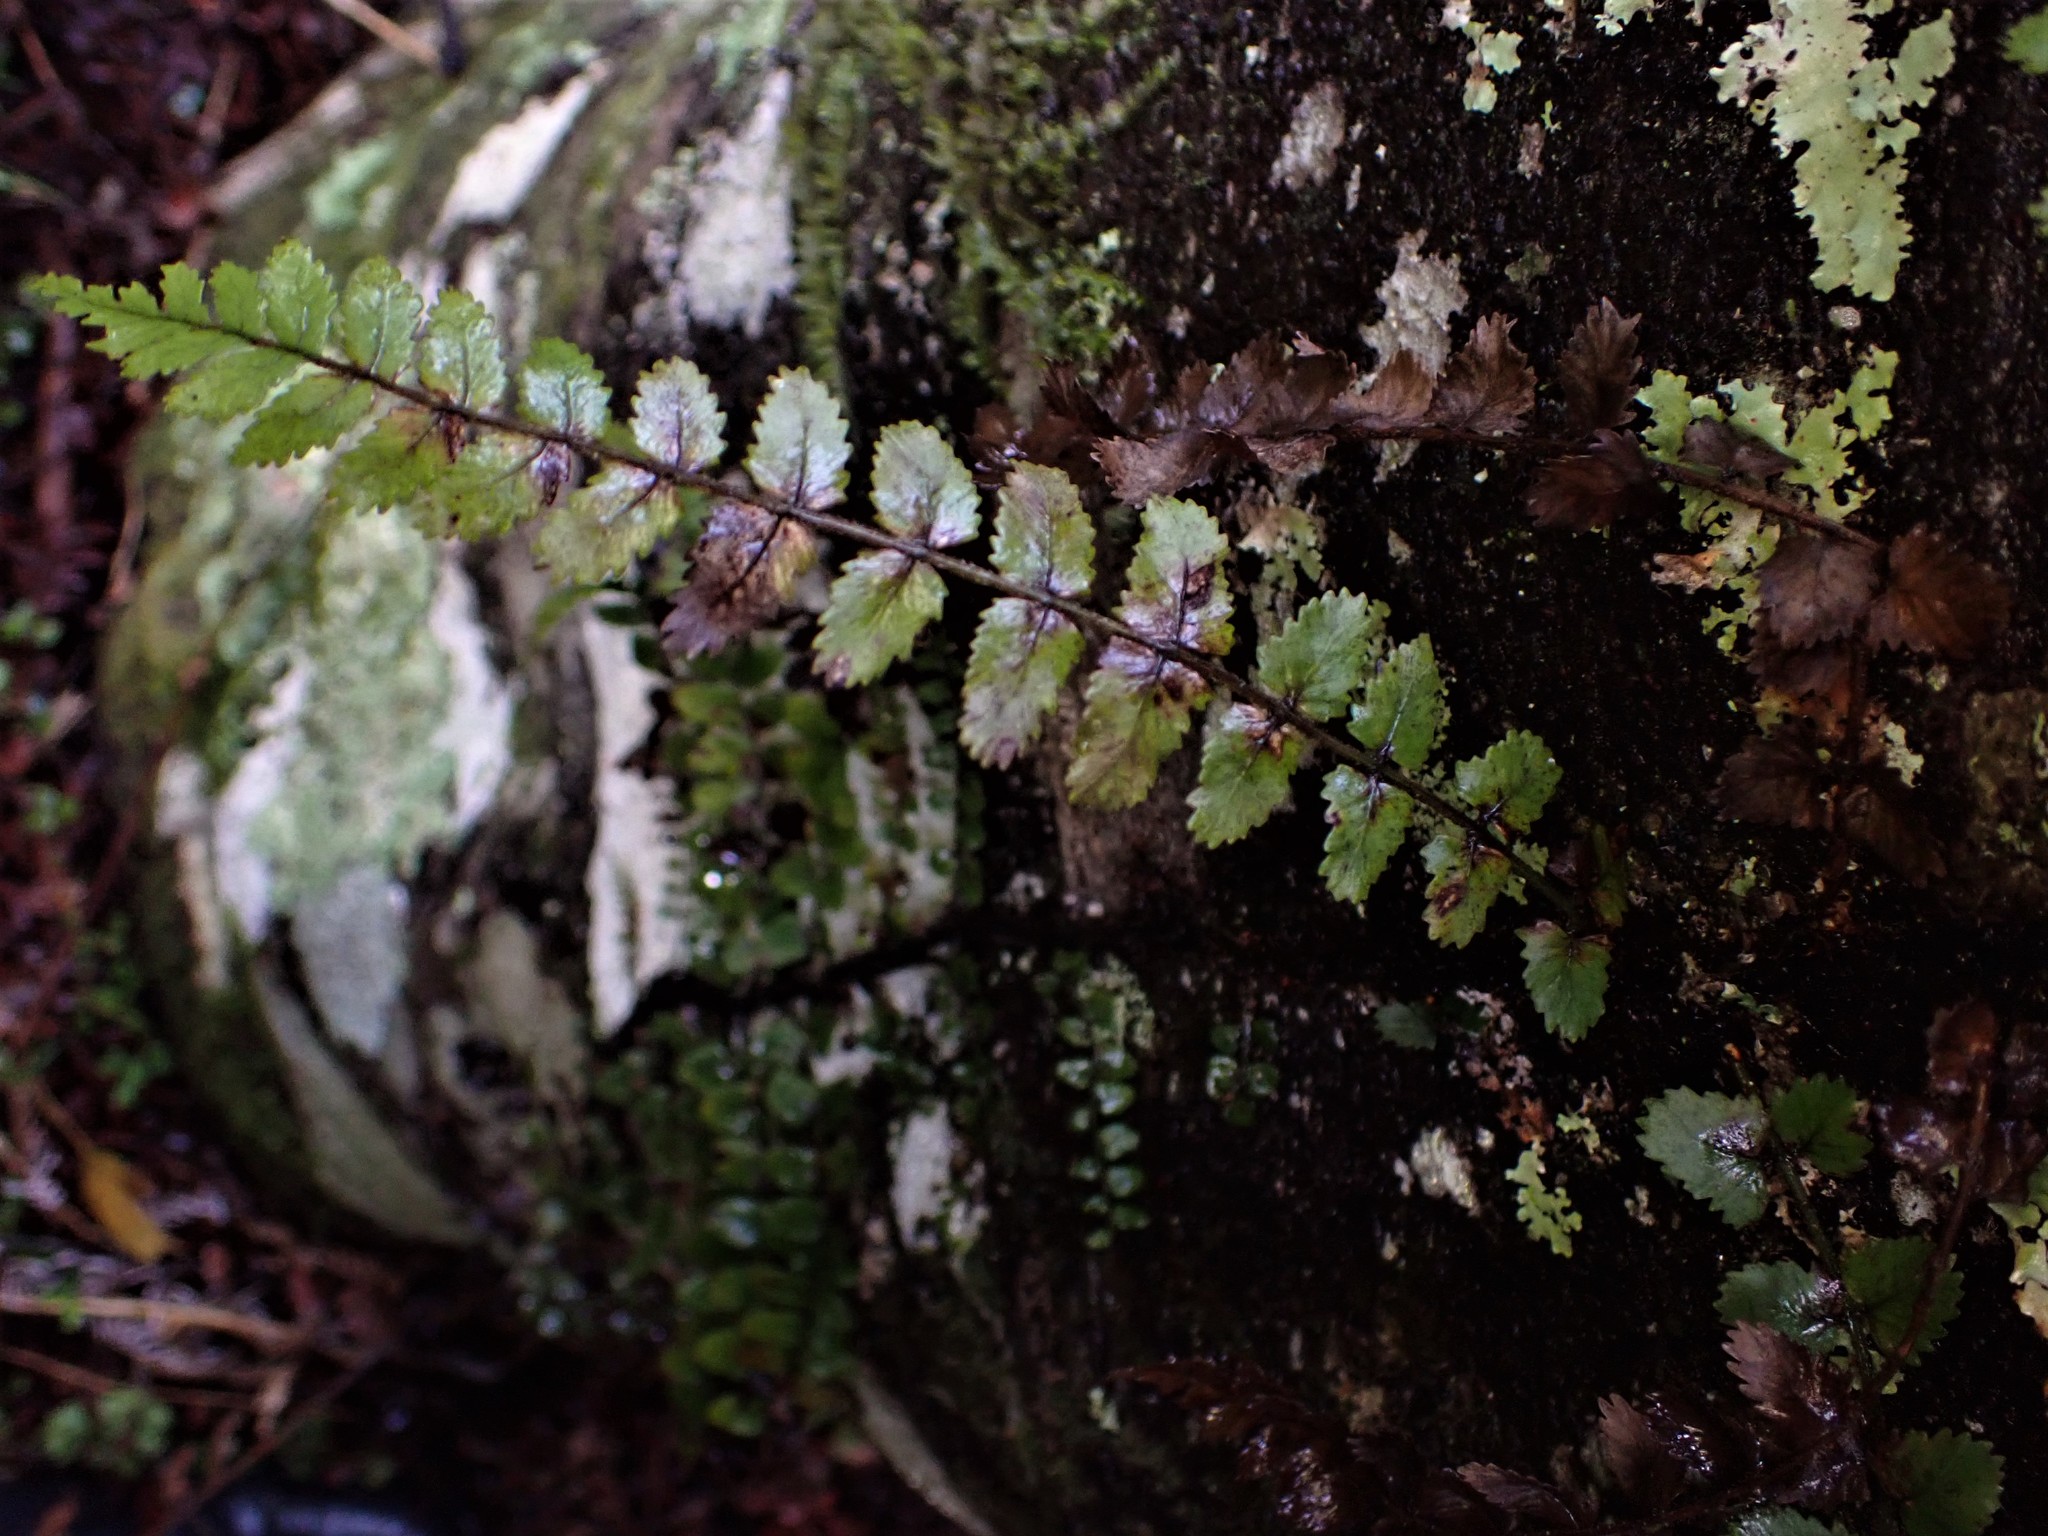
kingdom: Plantae
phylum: Tracheophyta
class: Polypodiopsida
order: Polypodiales
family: Blechnaceae
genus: Icarus
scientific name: Icarus filiformis
